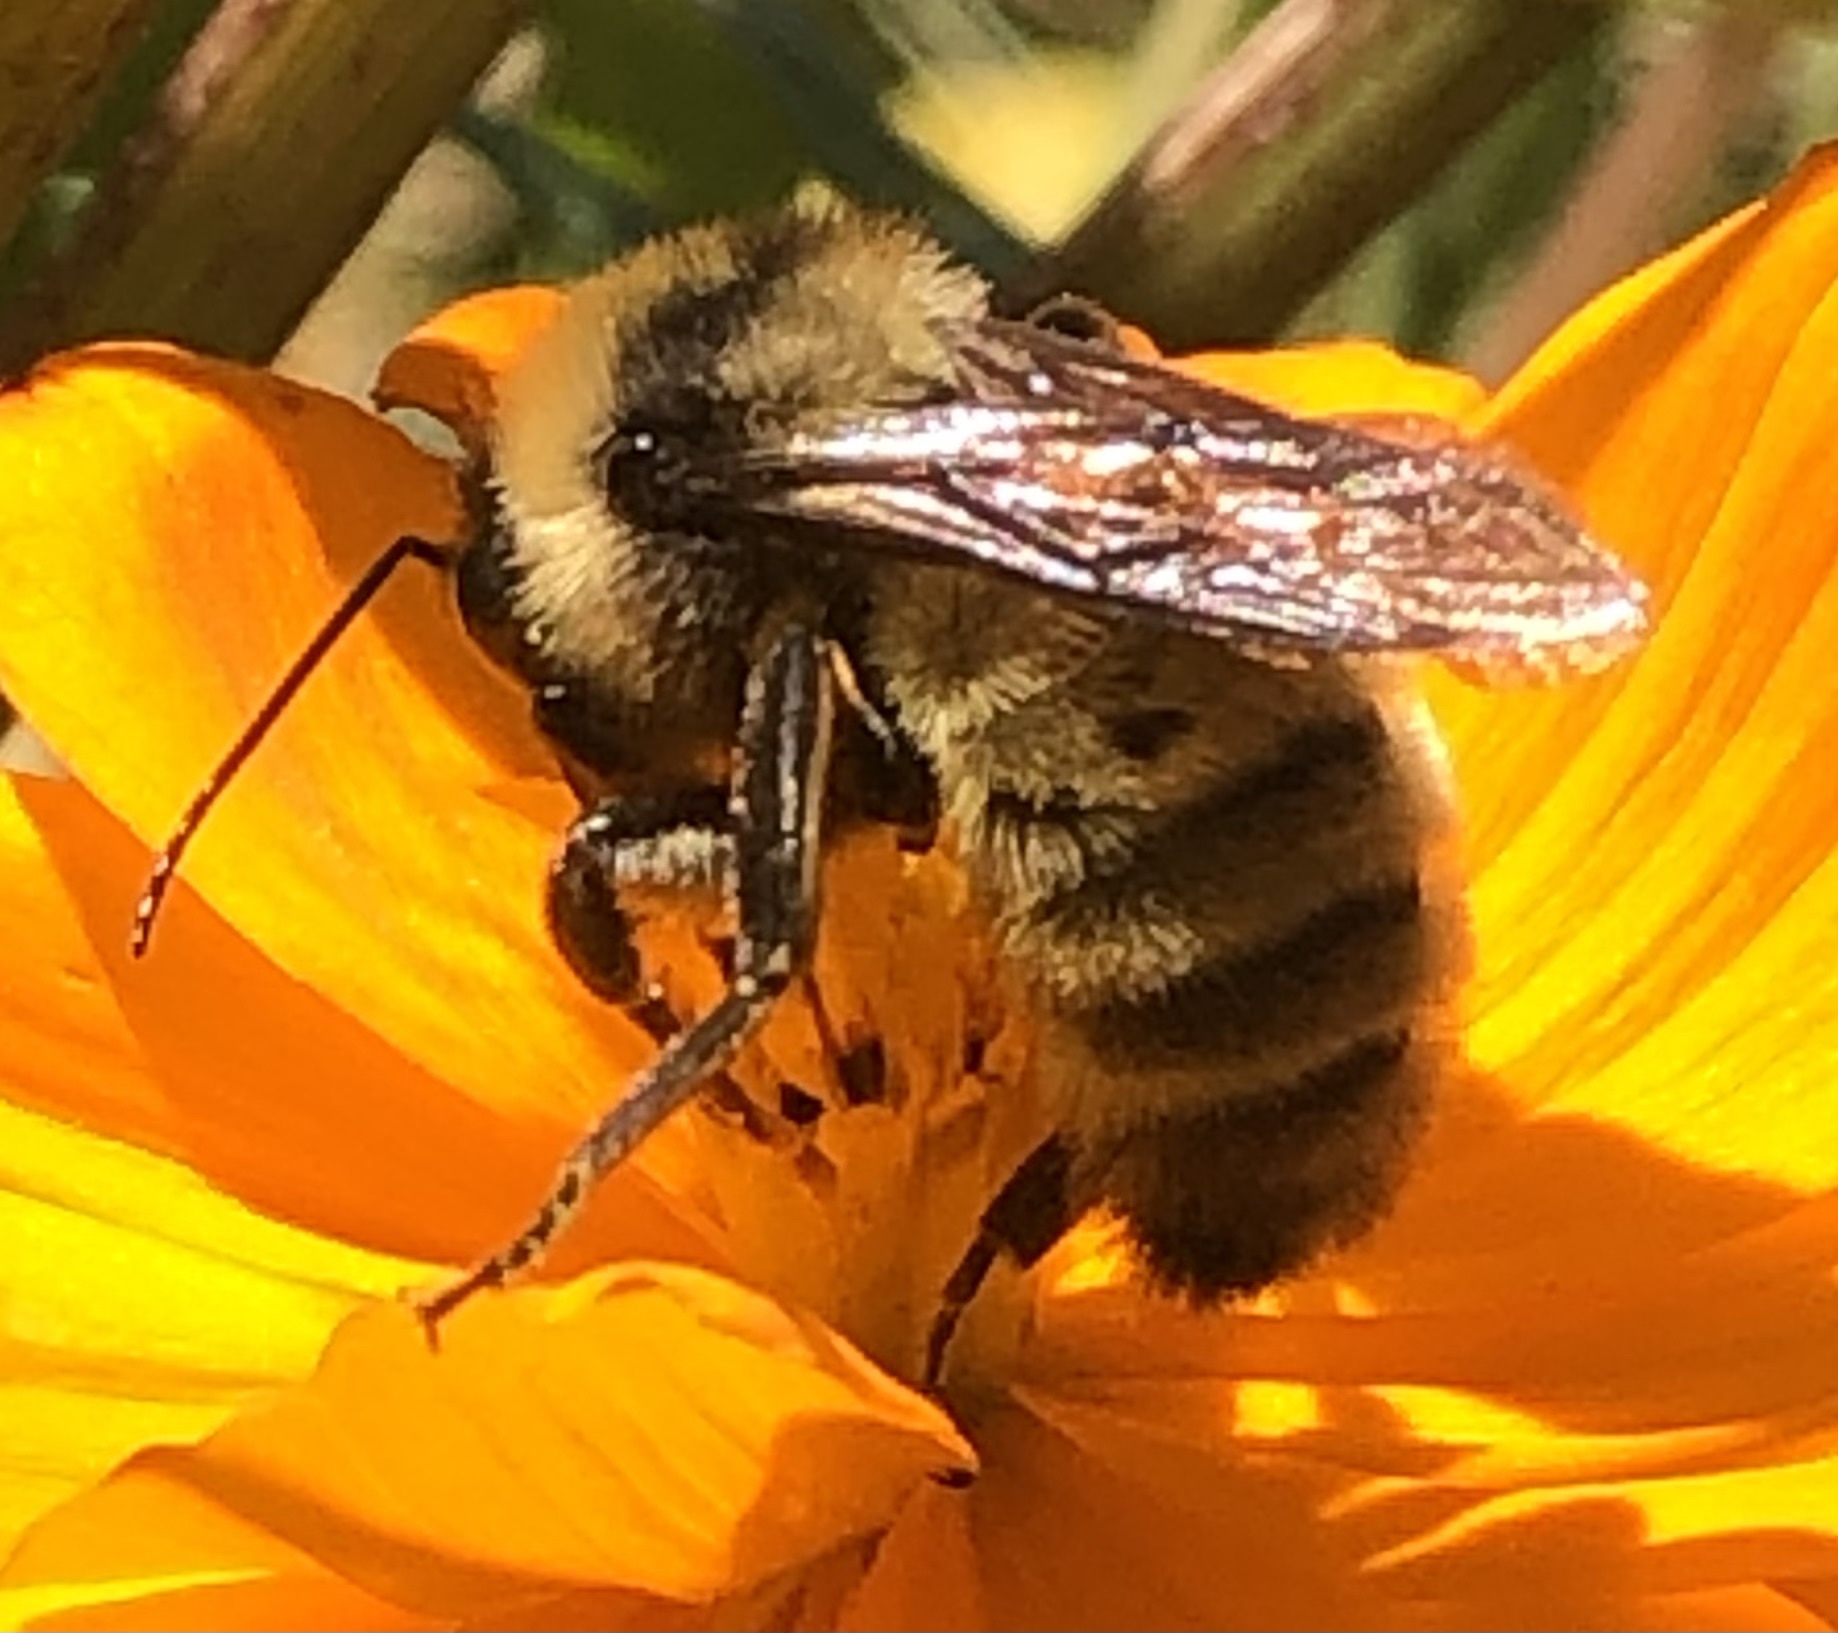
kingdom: Animalia
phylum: Arthropoda
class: Insecta
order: Hymenoptera
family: Apidae
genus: Bombus
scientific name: Bombus pensylvanicus
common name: Bumble bee
